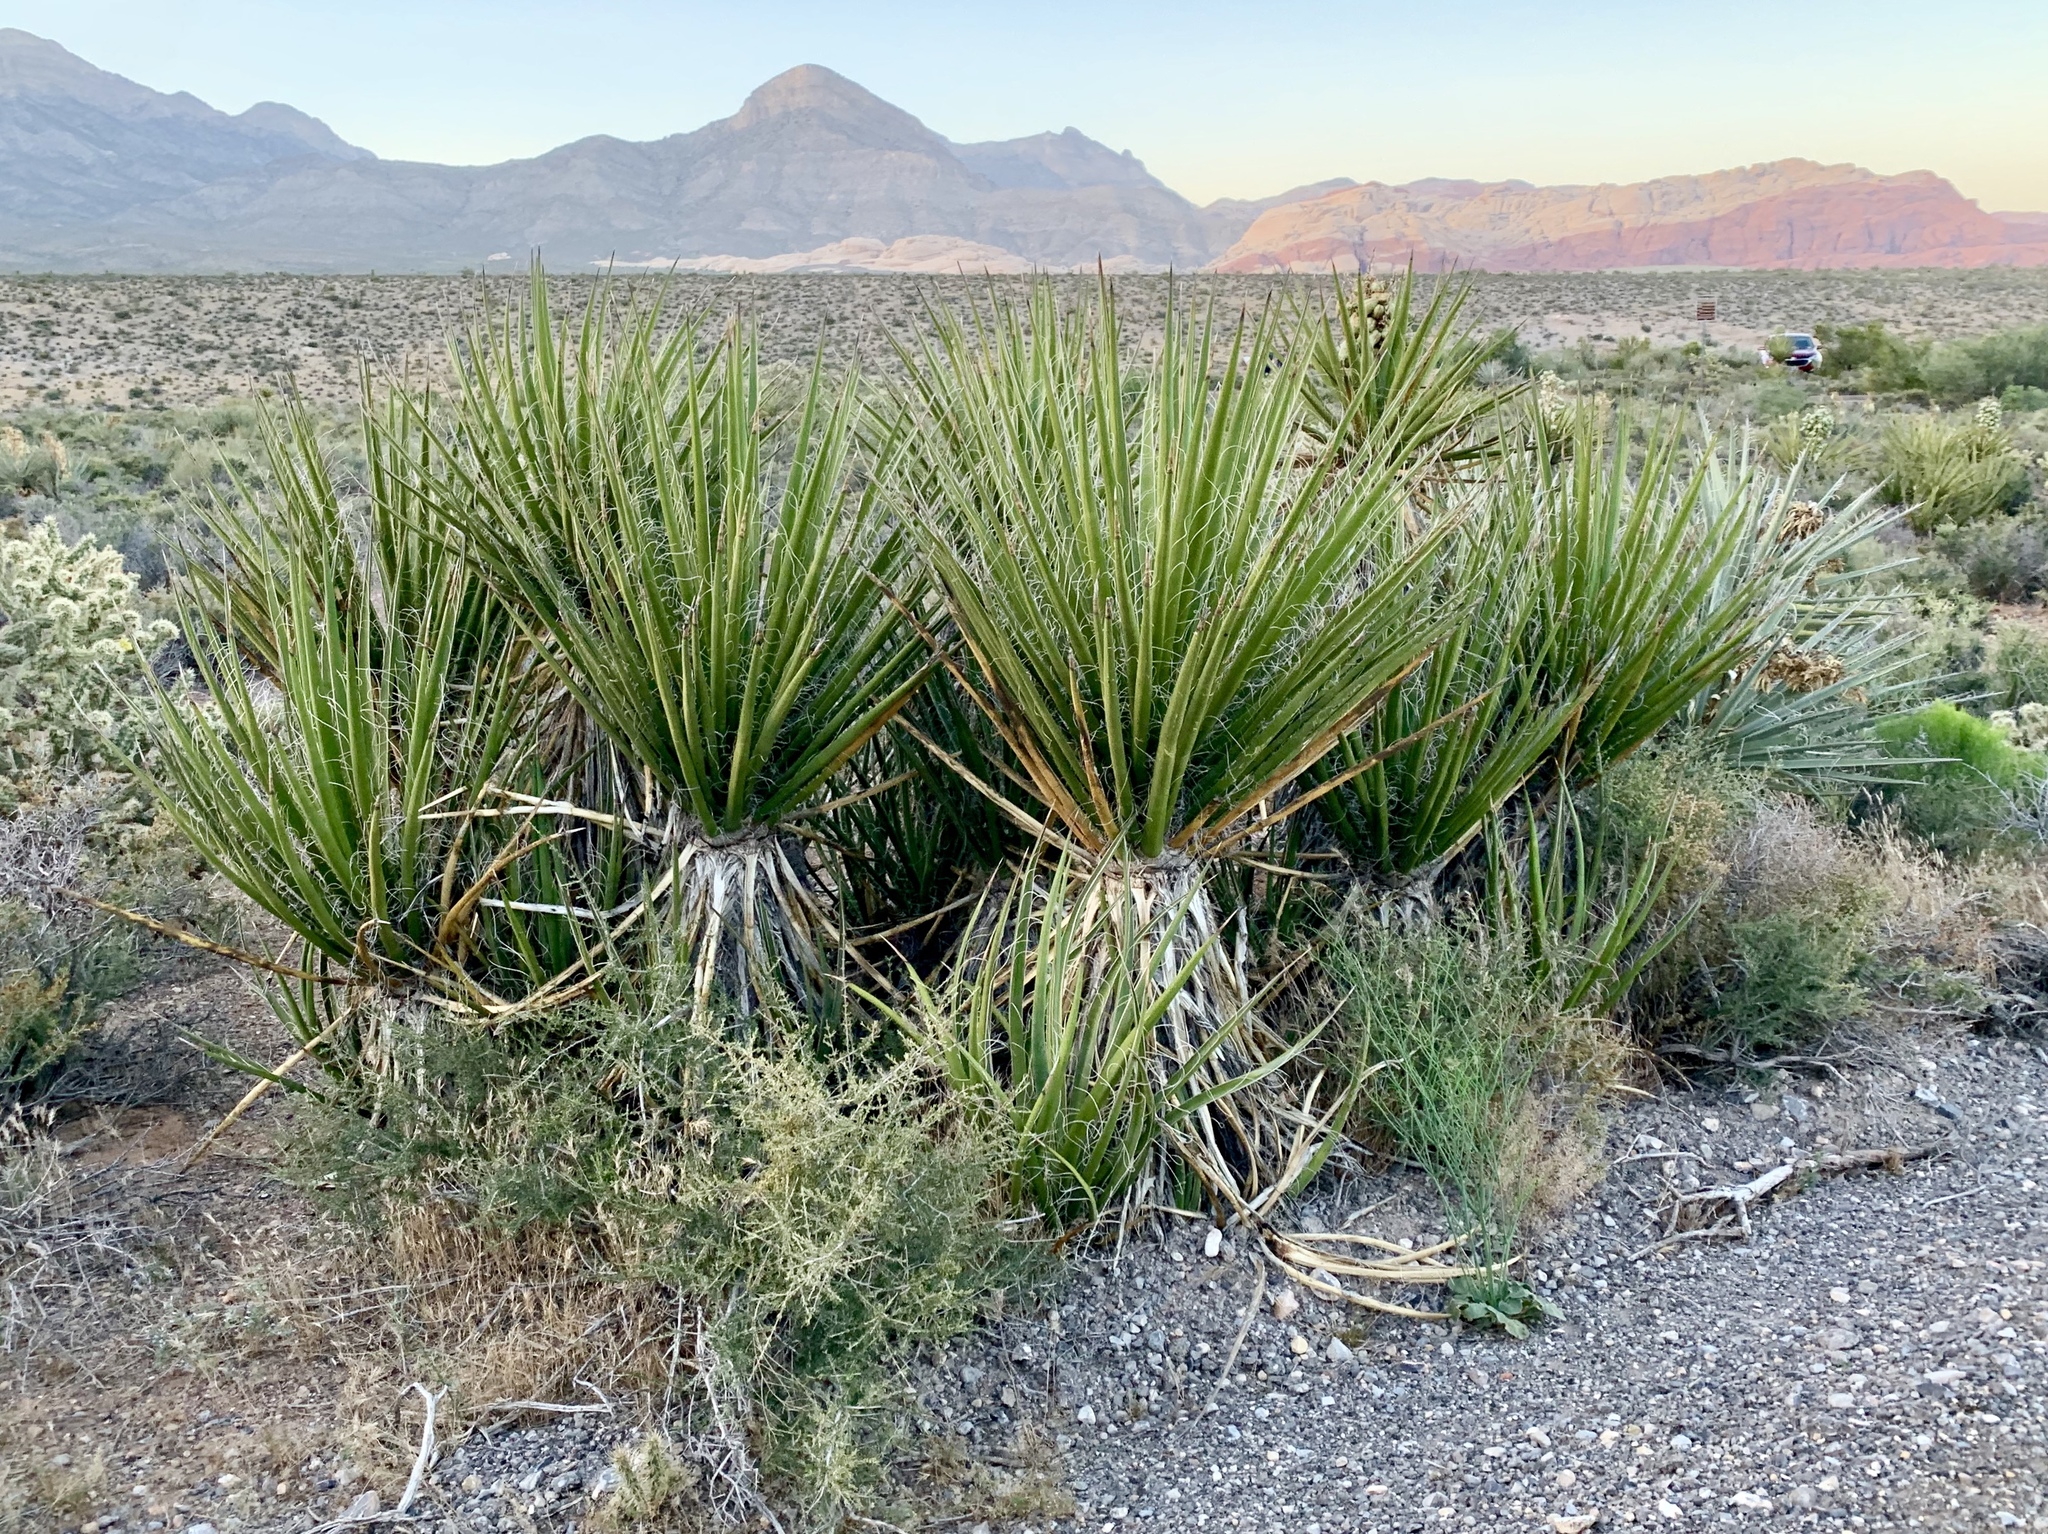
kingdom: Plantae
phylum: Tracheophyta
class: Liliopsida
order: Asparagales
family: Asparagaceae
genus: Yucca
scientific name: Yucca schidigera
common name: Mojave yucca
